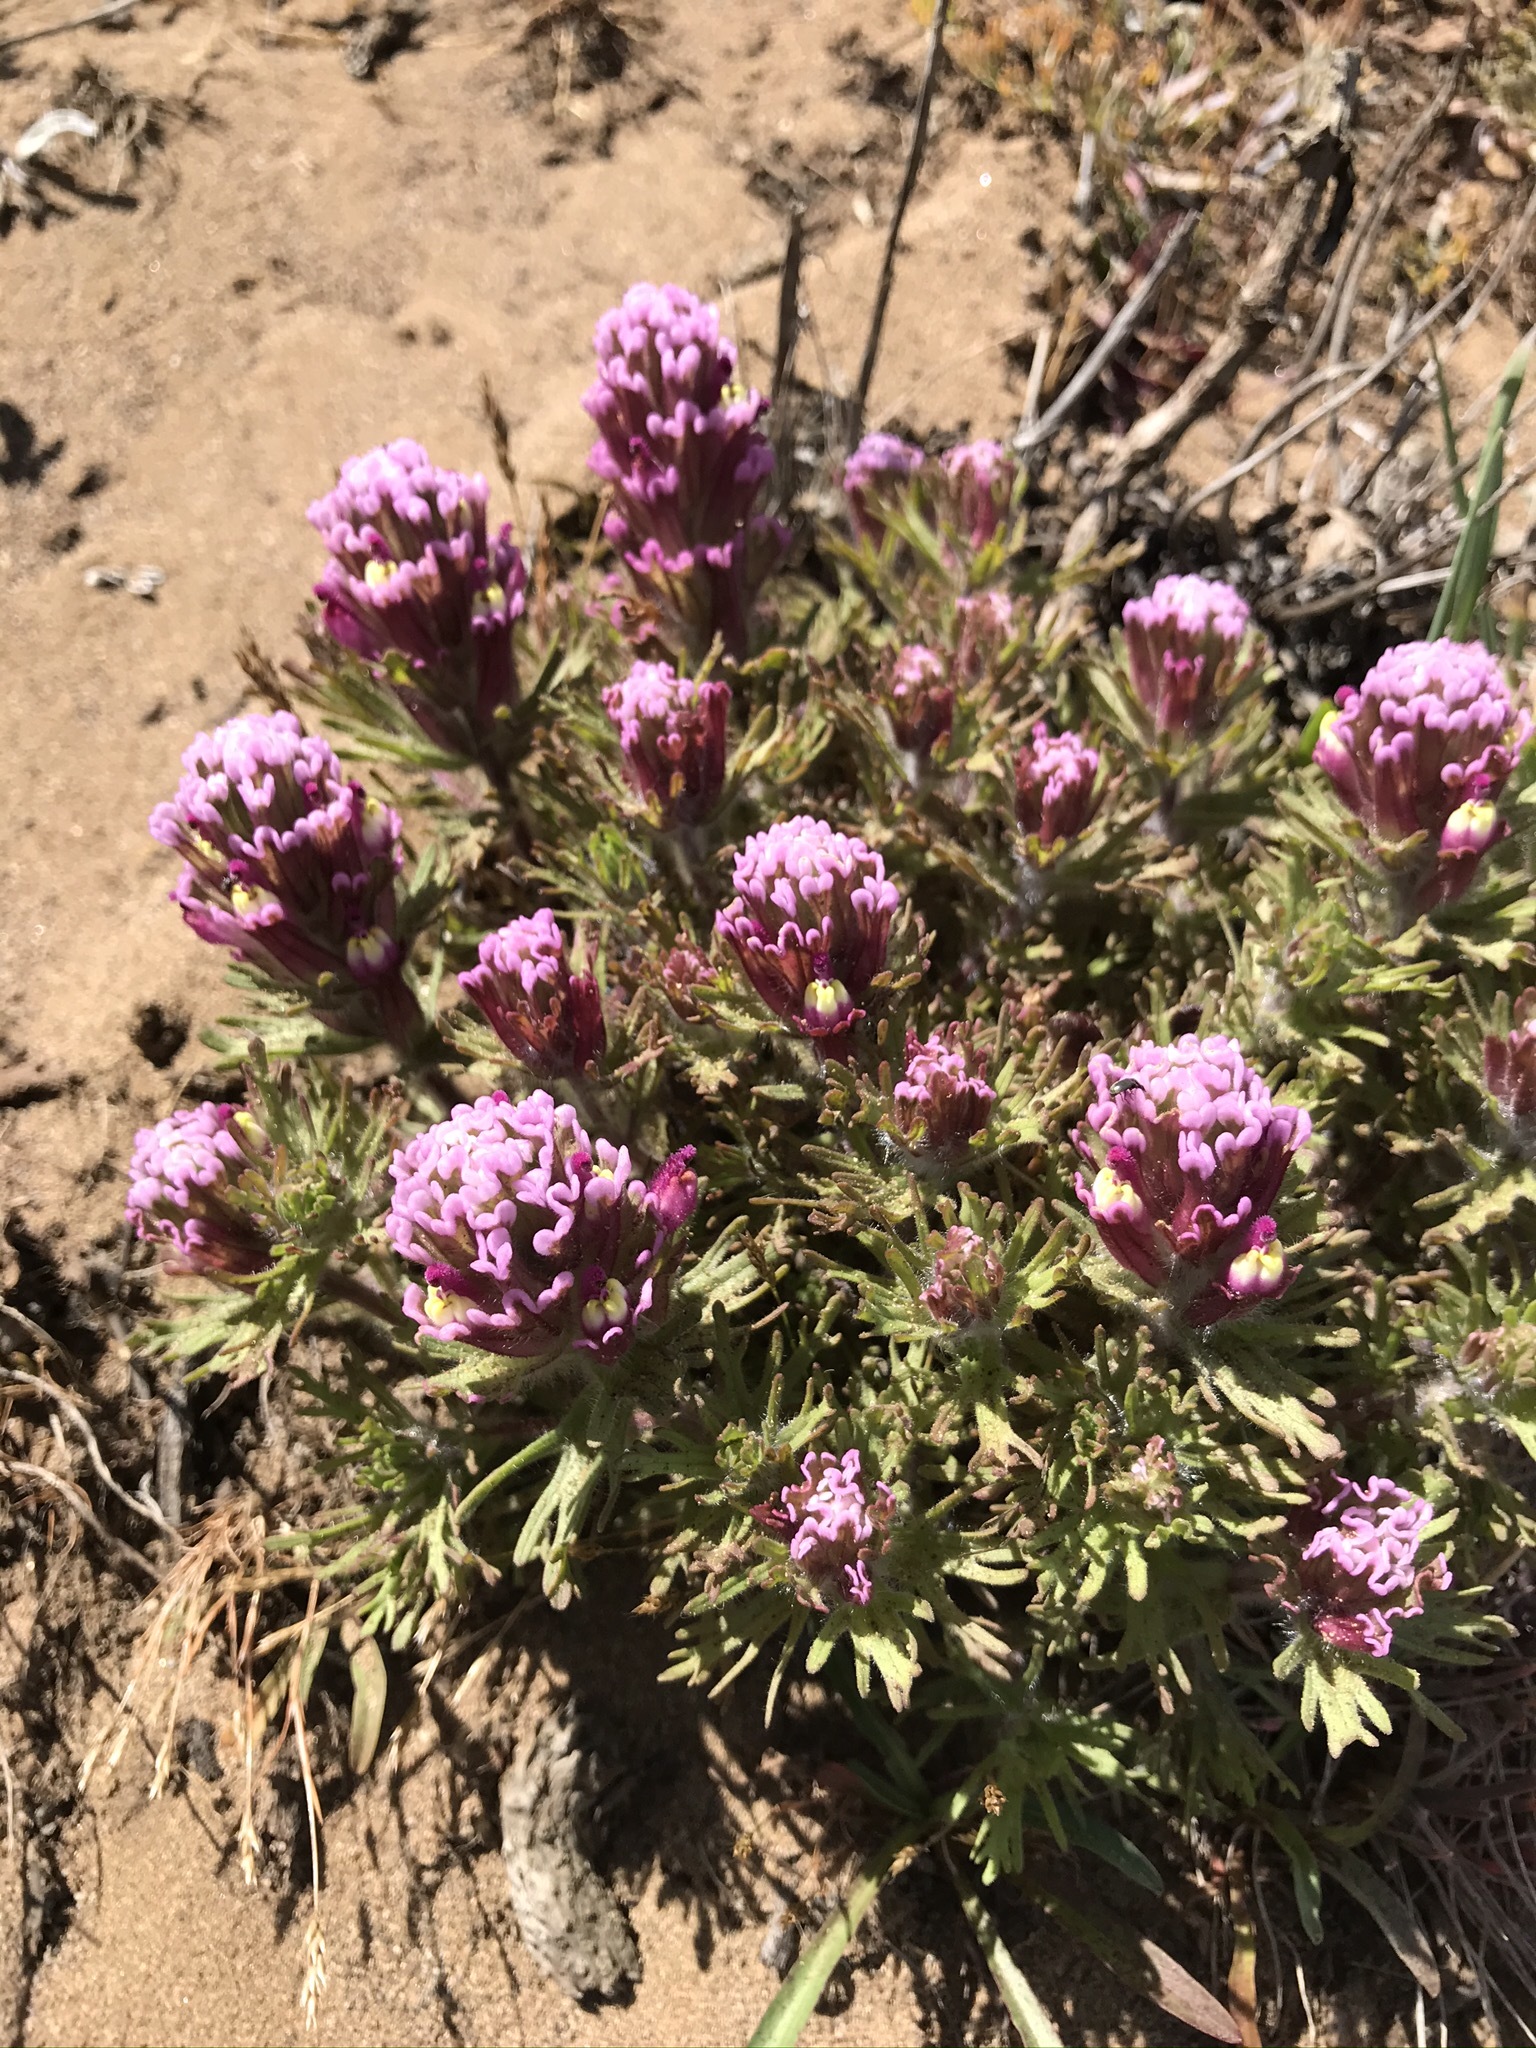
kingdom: Plantae
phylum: Tracheophyta
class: Magnoliopsida
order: Lamiales
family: Orobanchaceae
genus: Castilleja
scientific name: Castilleja exserta
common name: Purple owl-clover
